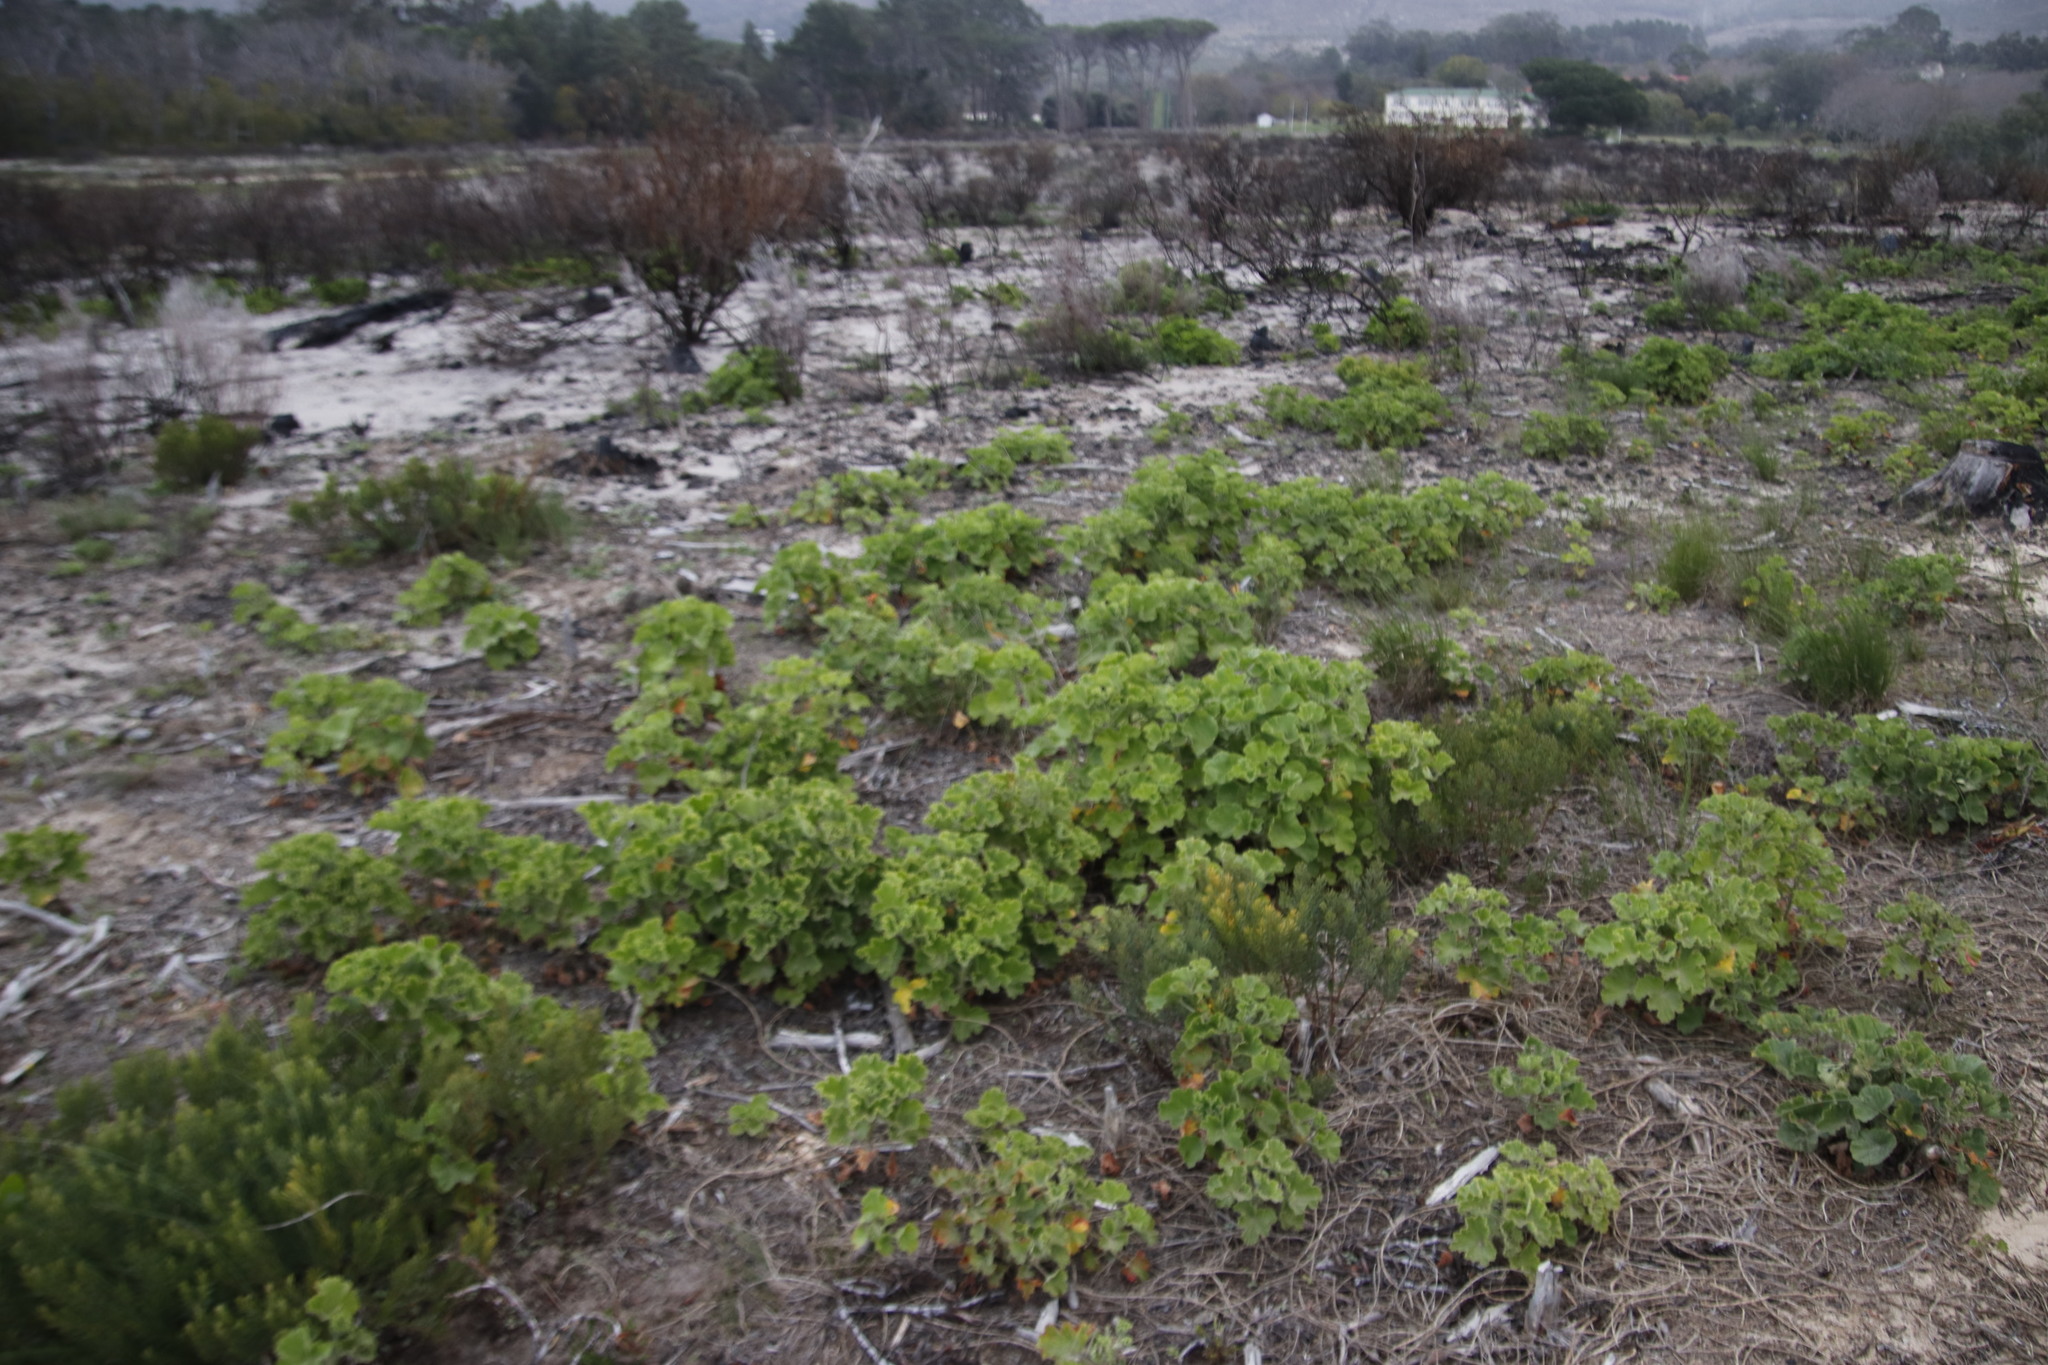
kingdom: Plantae
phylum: Tracheophyta
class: Magnoliopsida
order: Geraniales
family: Geraniaceae
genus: Pelargonium
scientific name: Pelargonium cucullatum
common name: Tree pelargonium
